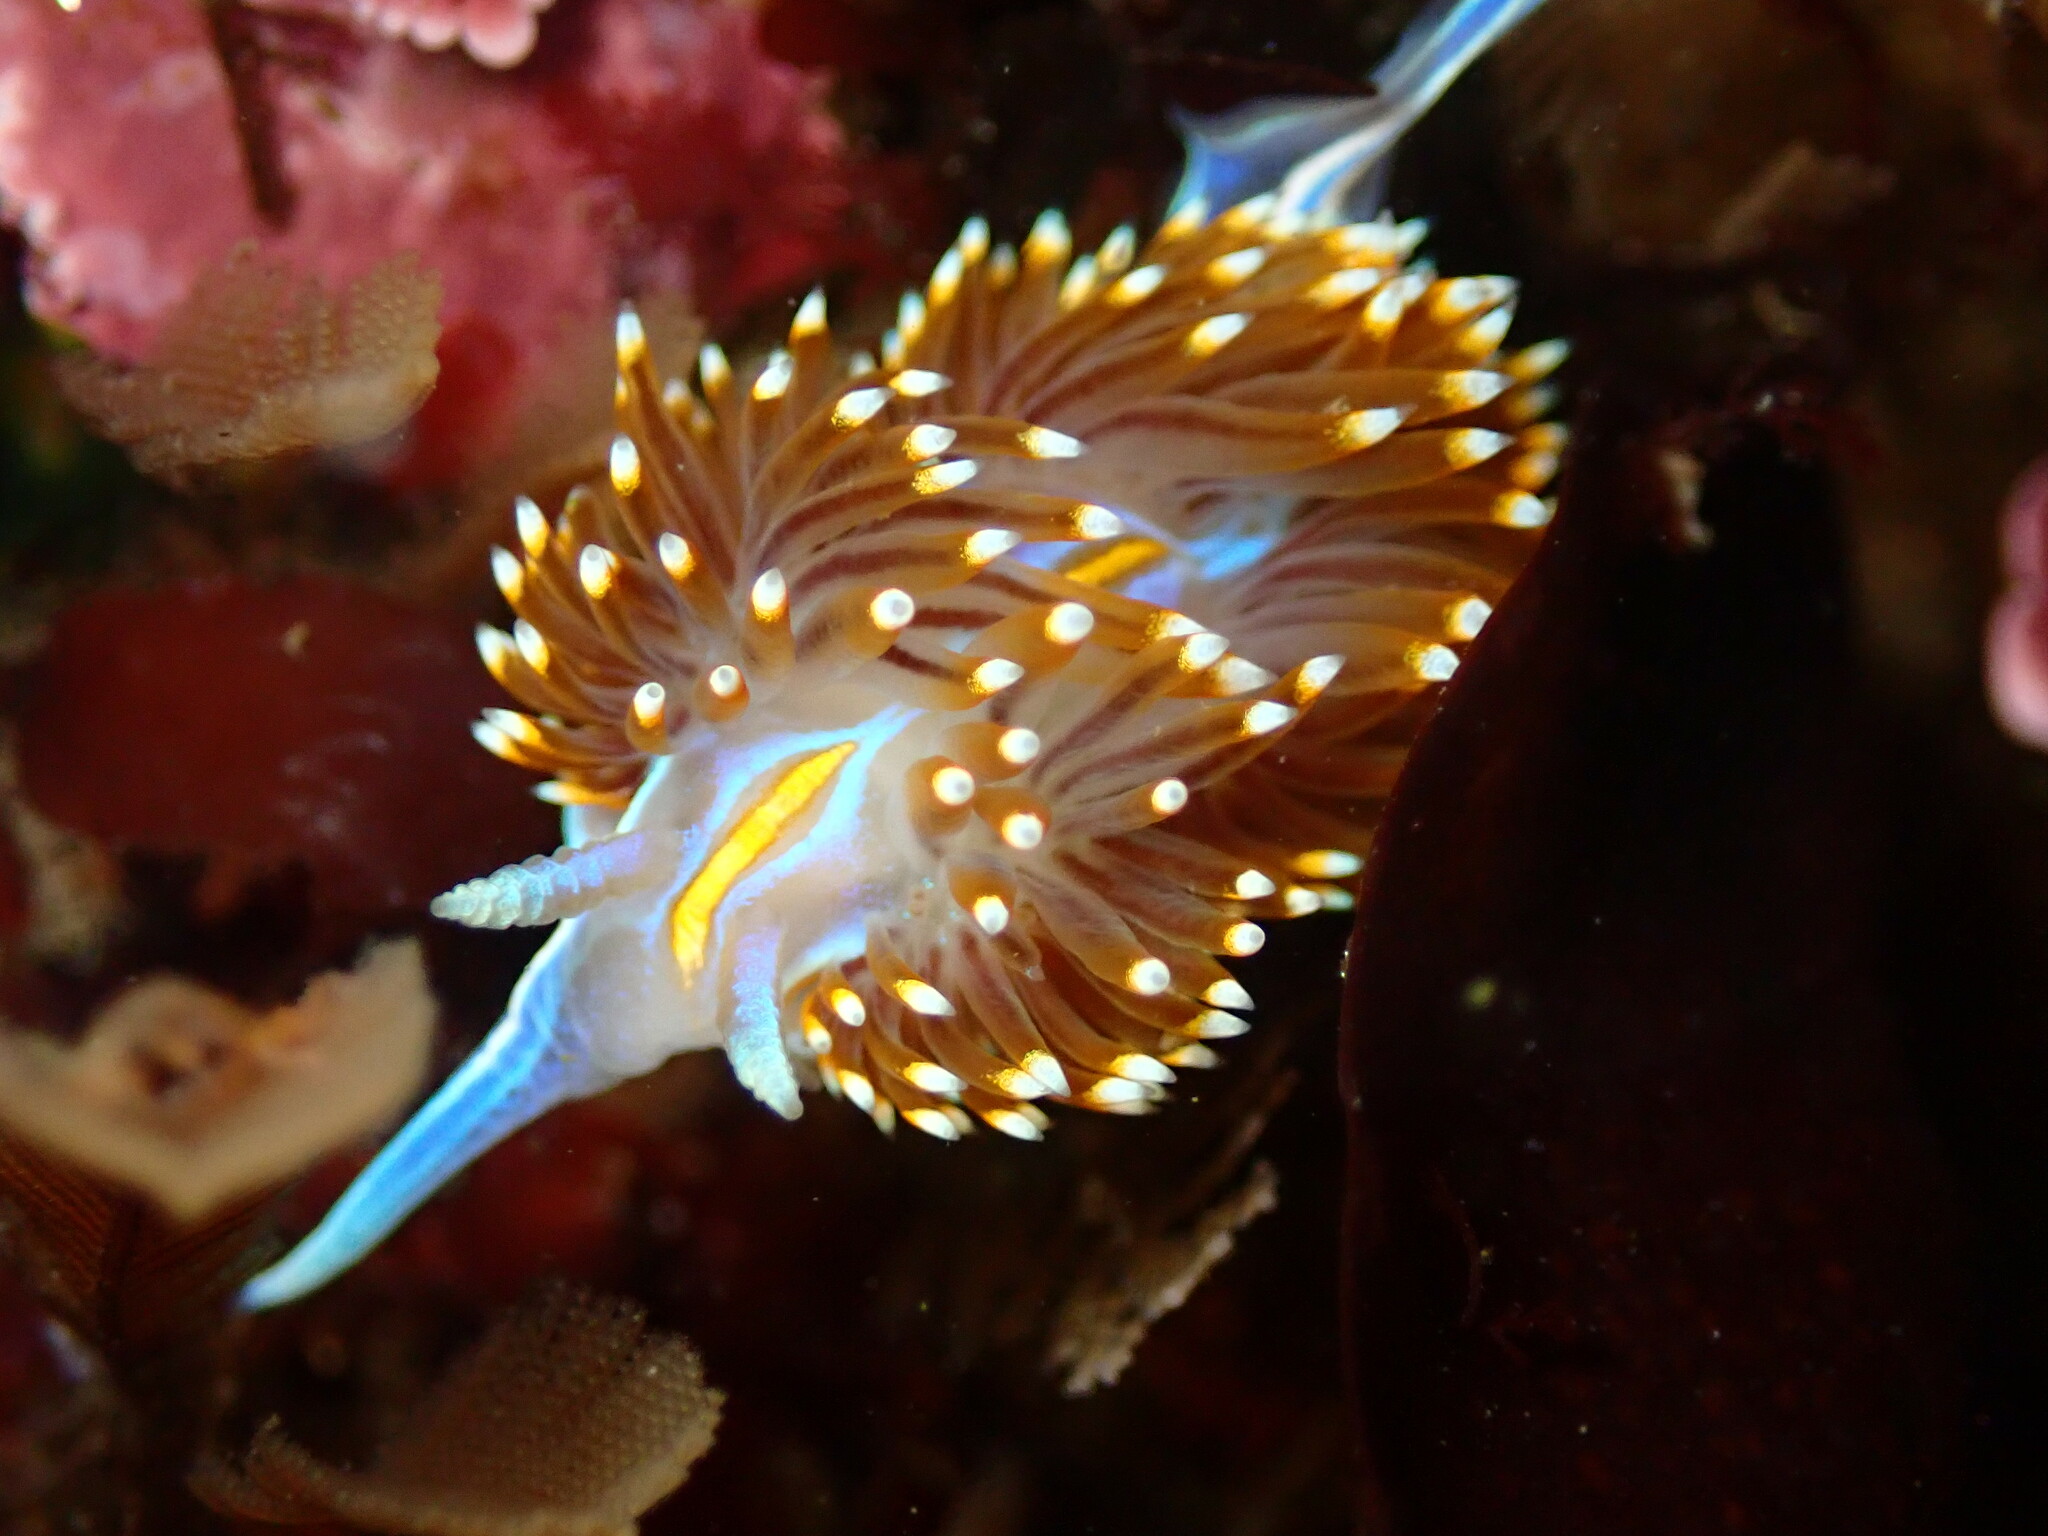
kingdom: Animalia
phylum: Mollusca
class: Gastropoda
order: Nudibranchia
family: Myrrhinidae
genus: Hermissenda
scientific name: Hermissenda opalescens
